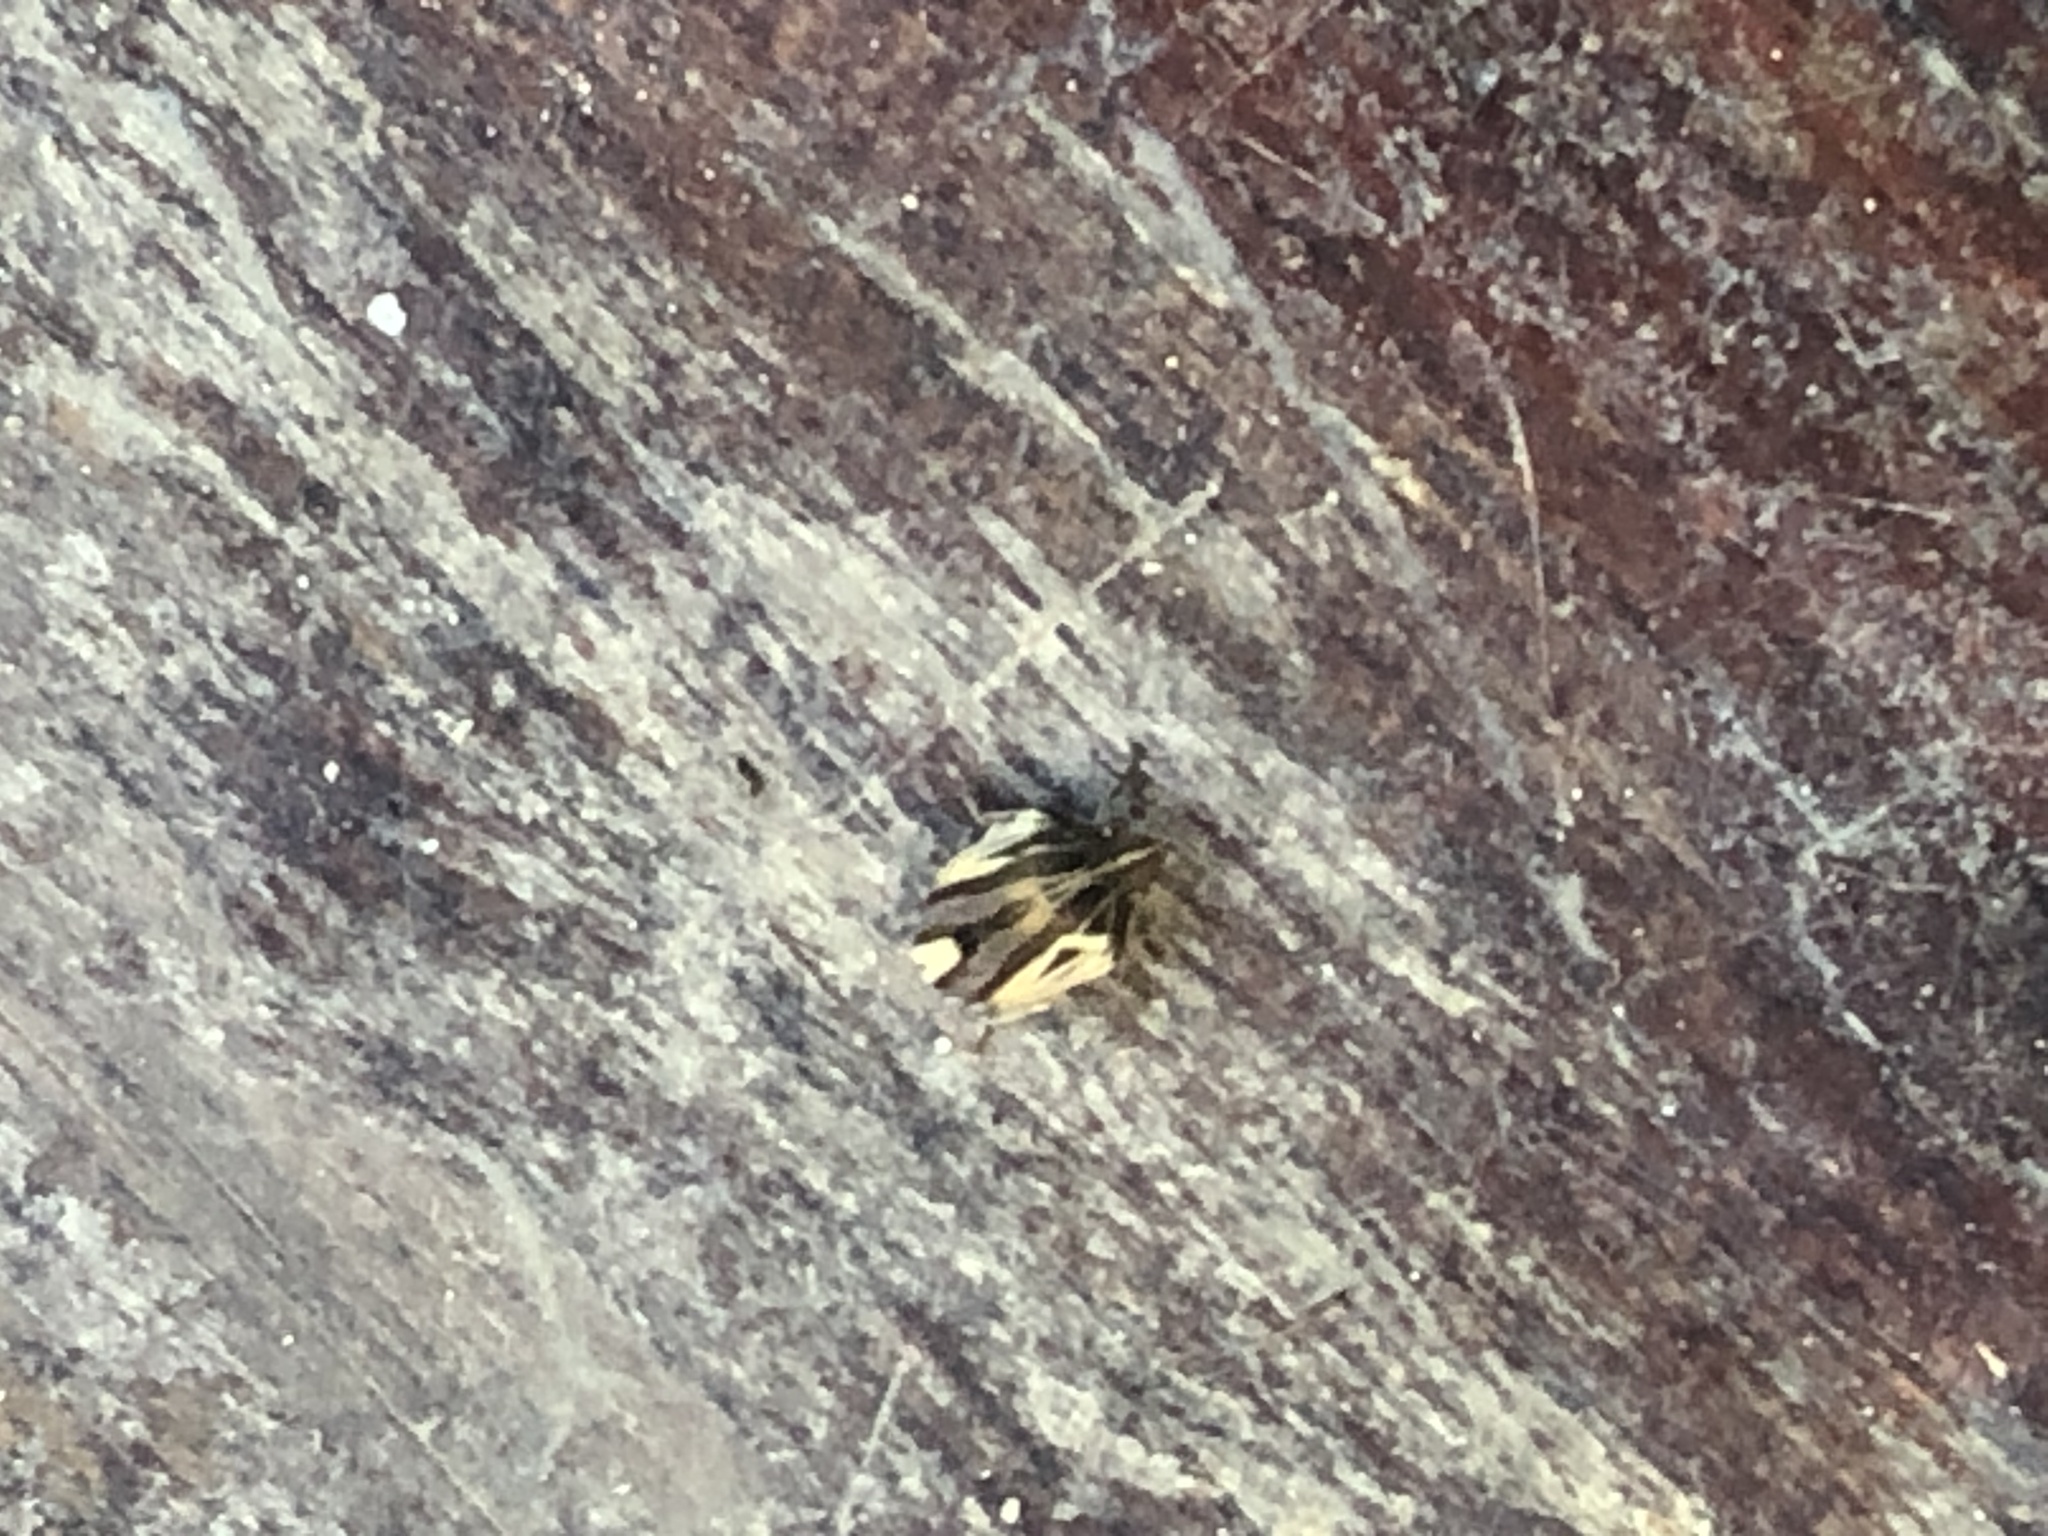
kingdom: Animalia
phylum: Arthropoda
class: Insecta
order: Hemiptera
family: Scutelleridae
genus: Symphylus
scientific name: Symphylus ramivitta
